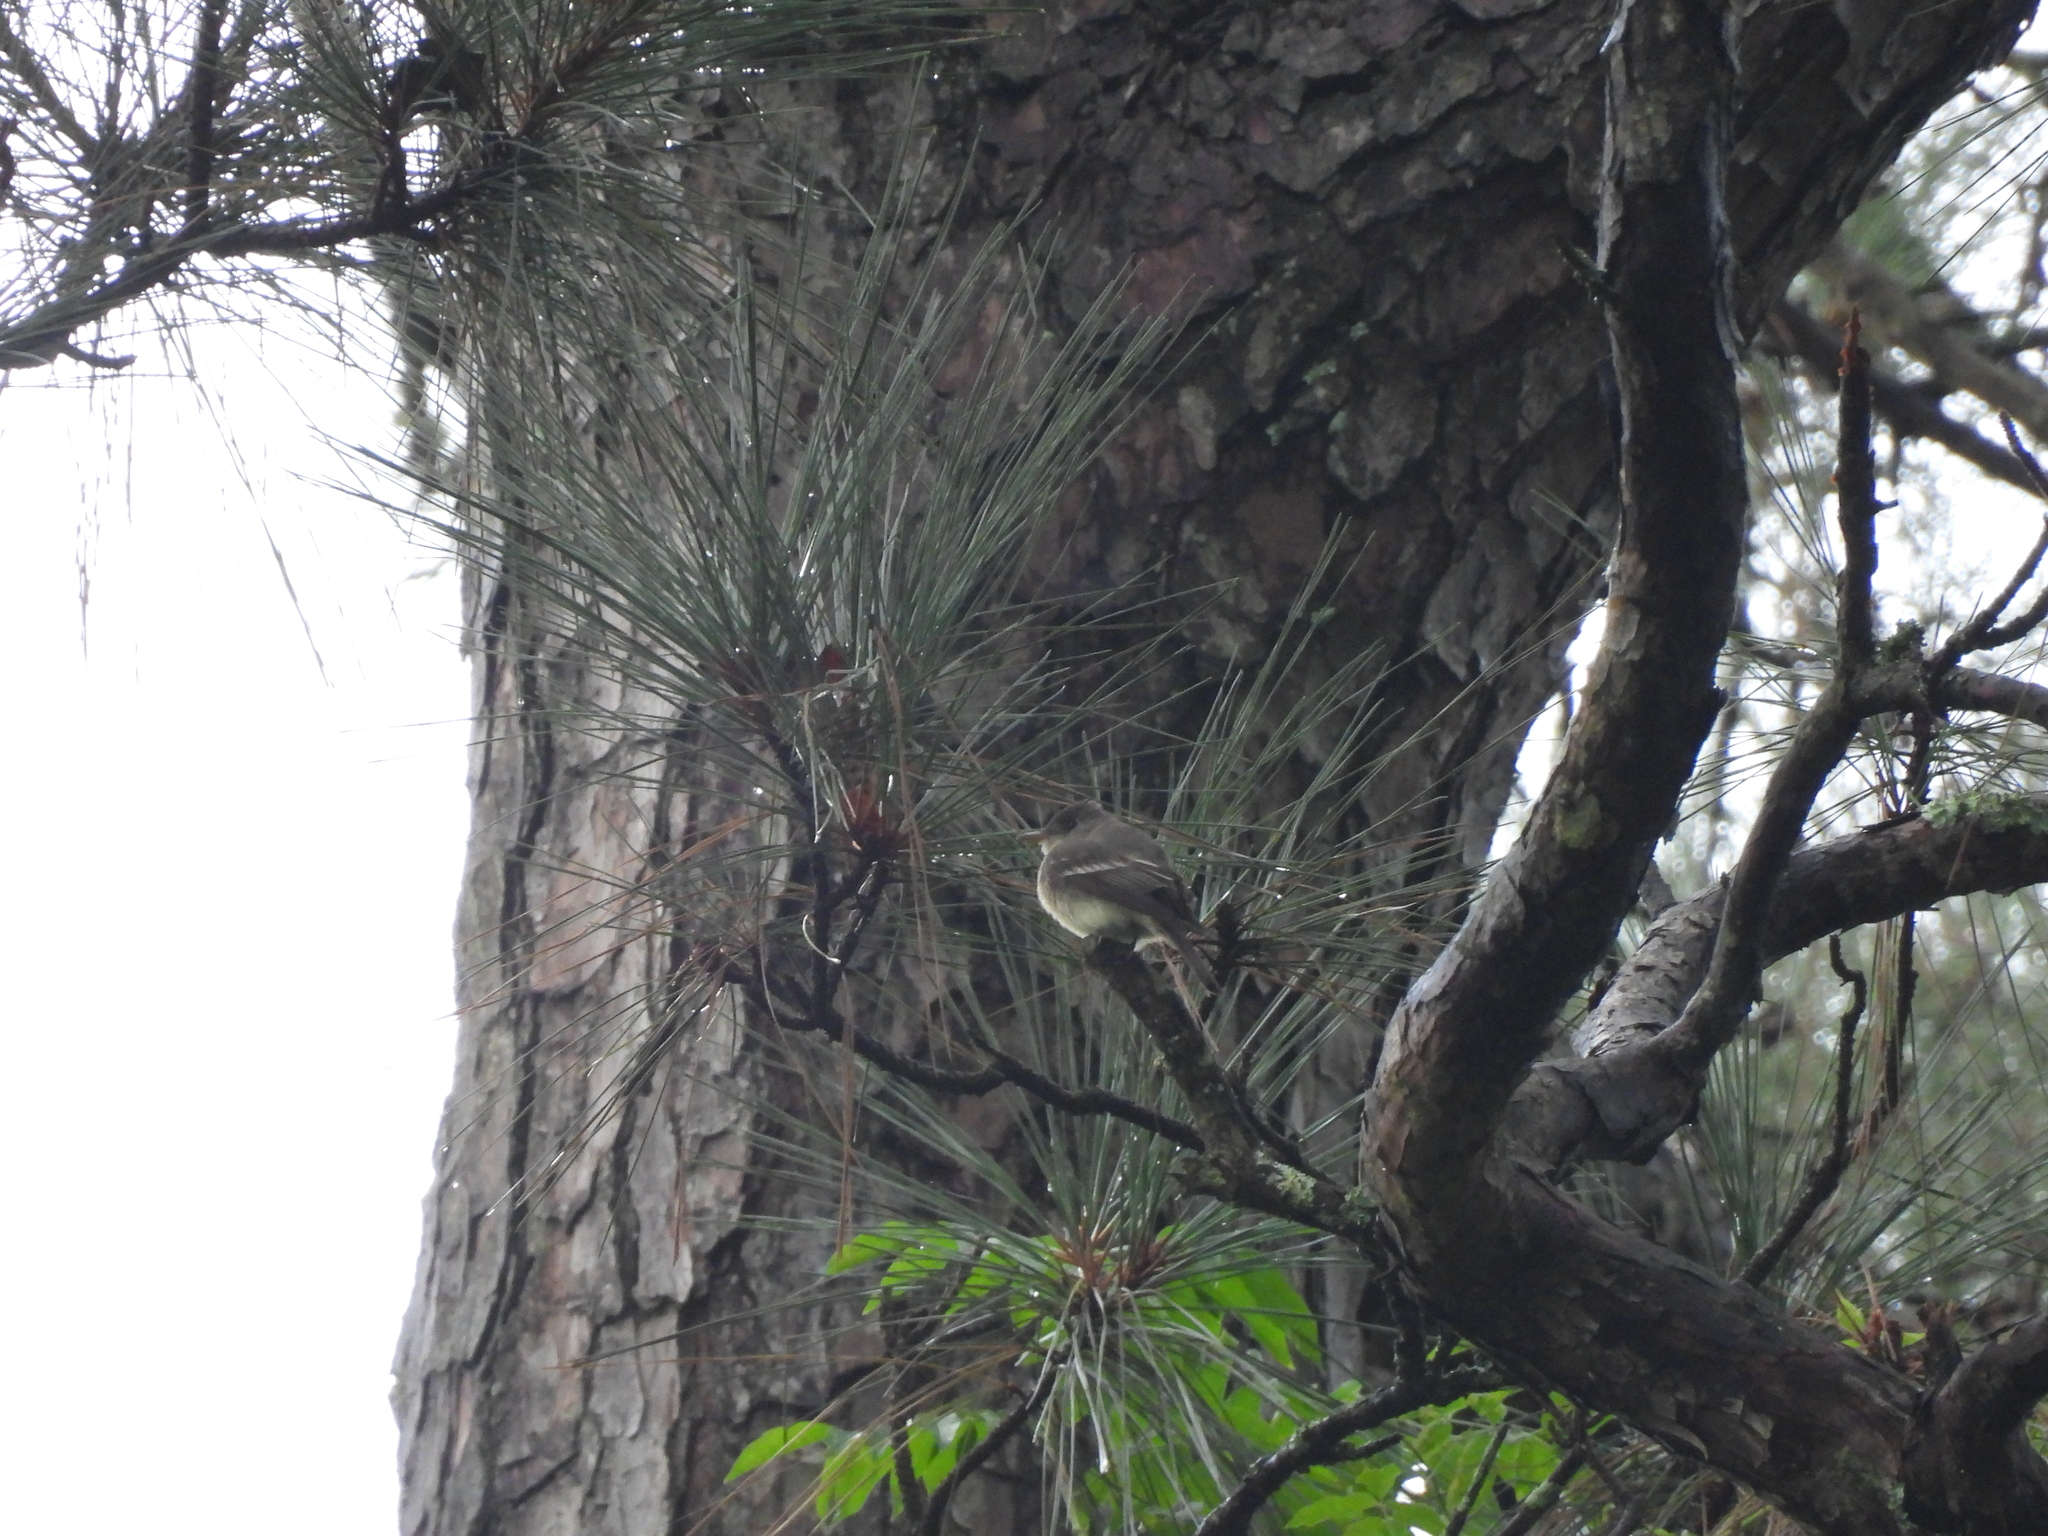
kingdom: Animalia
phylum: Chordata
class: Aves
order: Passeriformes
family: Tyrannidae
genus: Contopus
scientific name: Contopus virens
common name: Eastern wood-pewee
